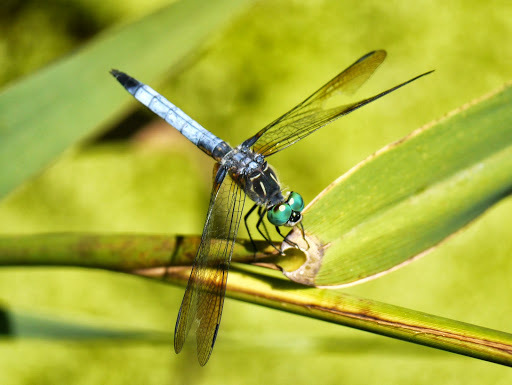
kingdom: Animalia
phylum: Arthropoda
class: Insecta
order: Odonata
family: Libellulidae
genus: Pachydiplax
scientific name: Pachydiplax longipennis
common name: Blue dasher
